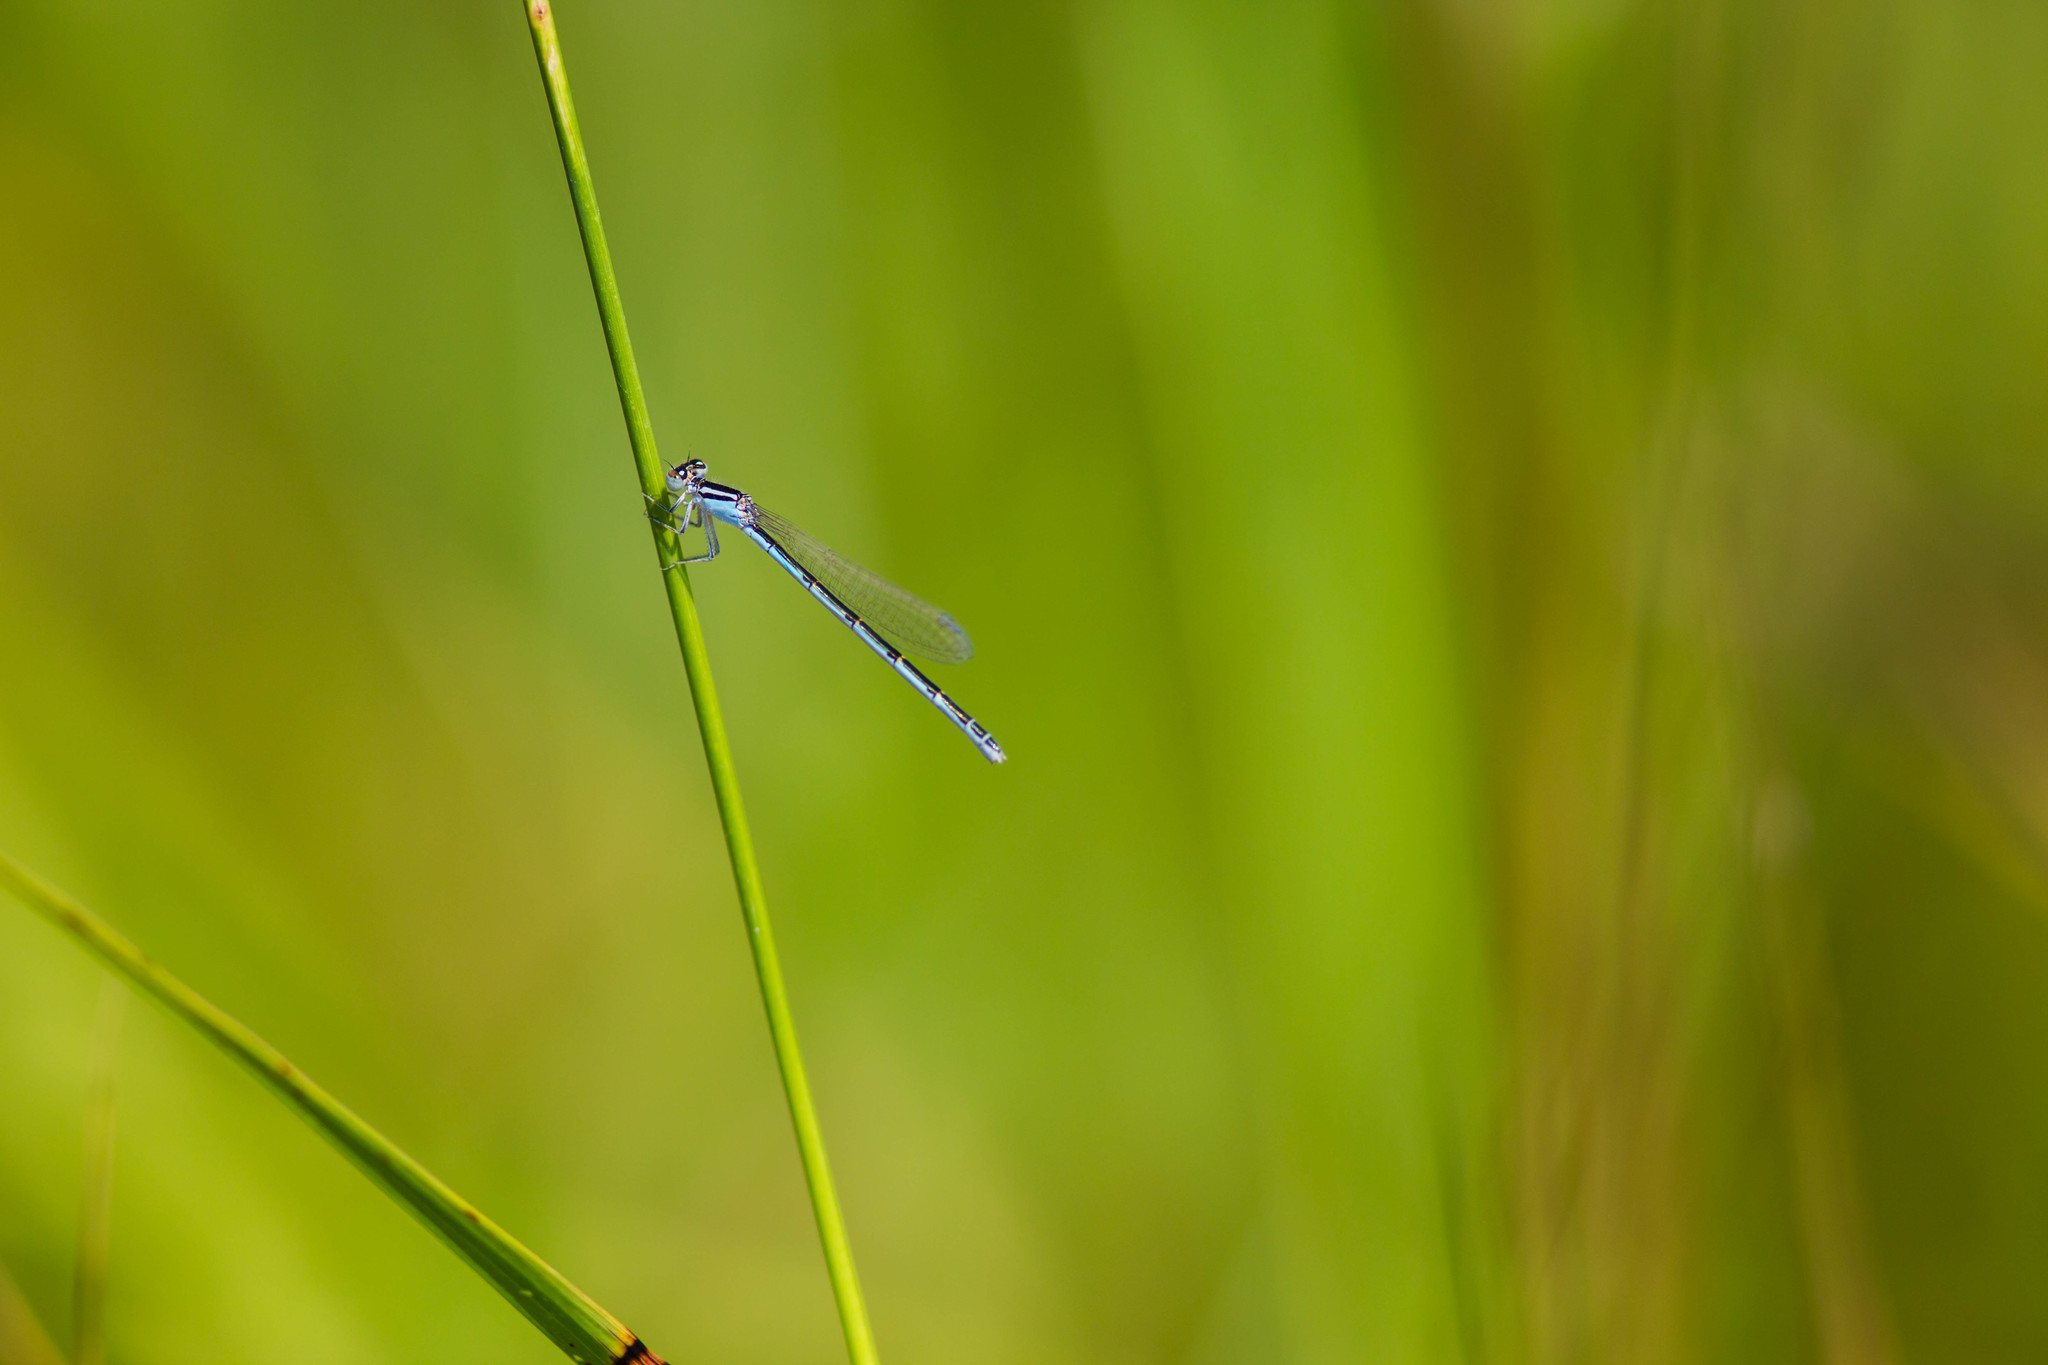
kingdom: Animalia
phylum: Arthropoda
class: Insecta
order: Odonata
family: Coenagrionidae
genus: Enallagma
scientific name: Enallagma civile
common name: Damselfly
